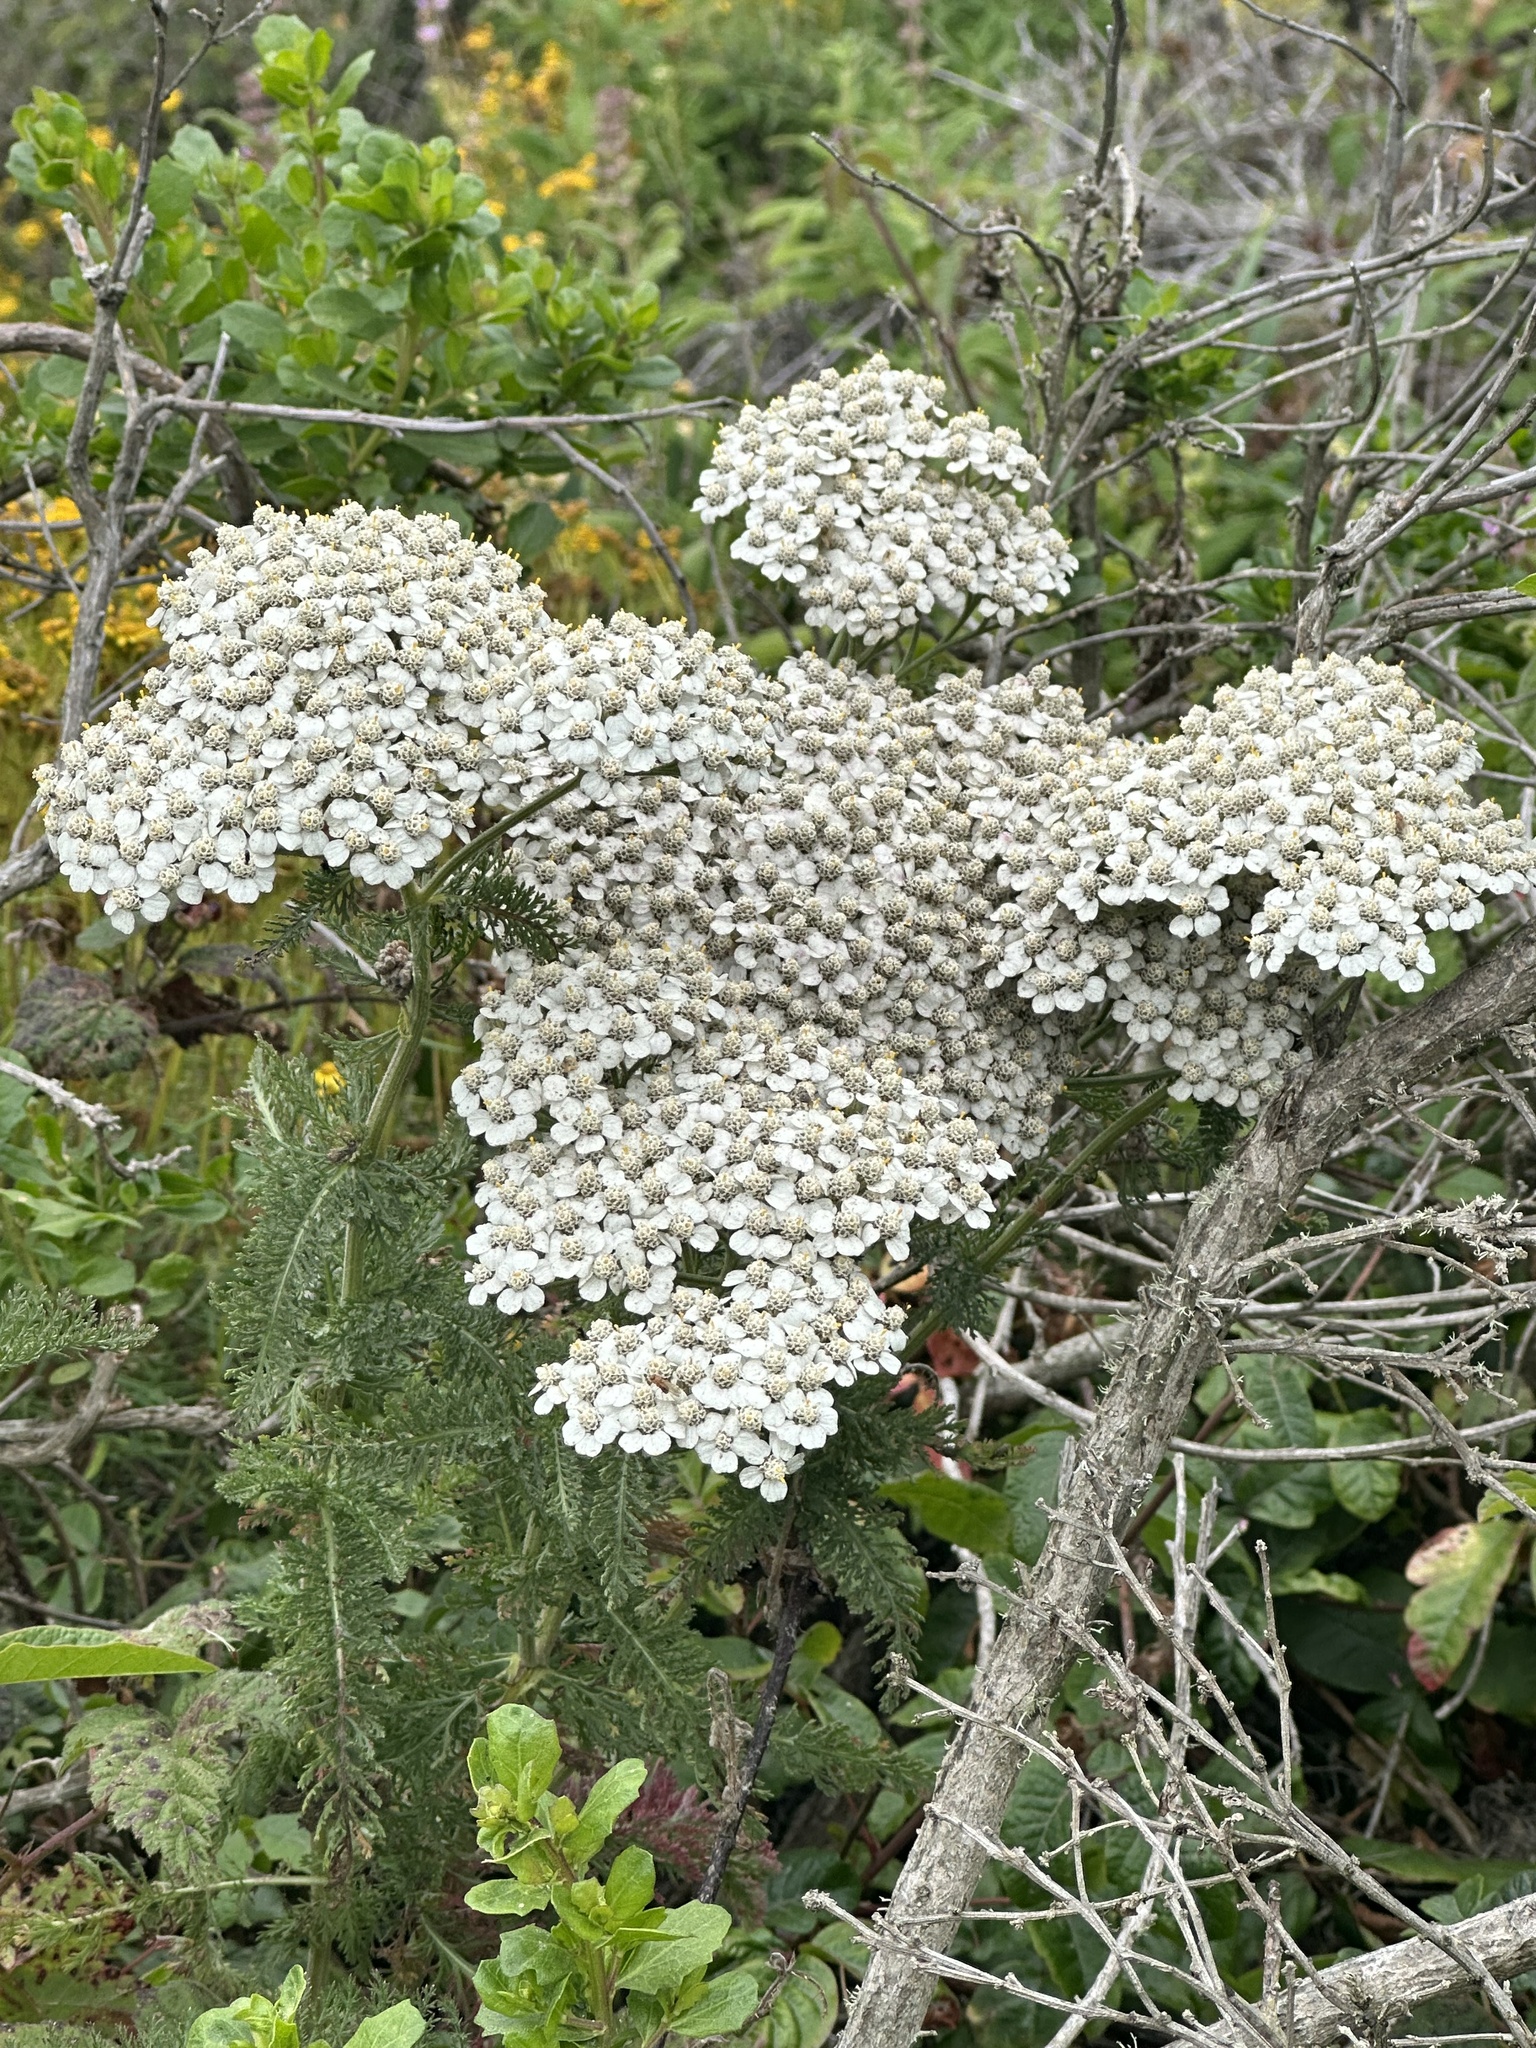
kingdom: Plantae
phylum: Tracheophyta
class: Magnoliopsida
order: Asterales
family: Asteraceae
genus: Achillea
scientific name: Achillea millefolium
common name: Yarrow
